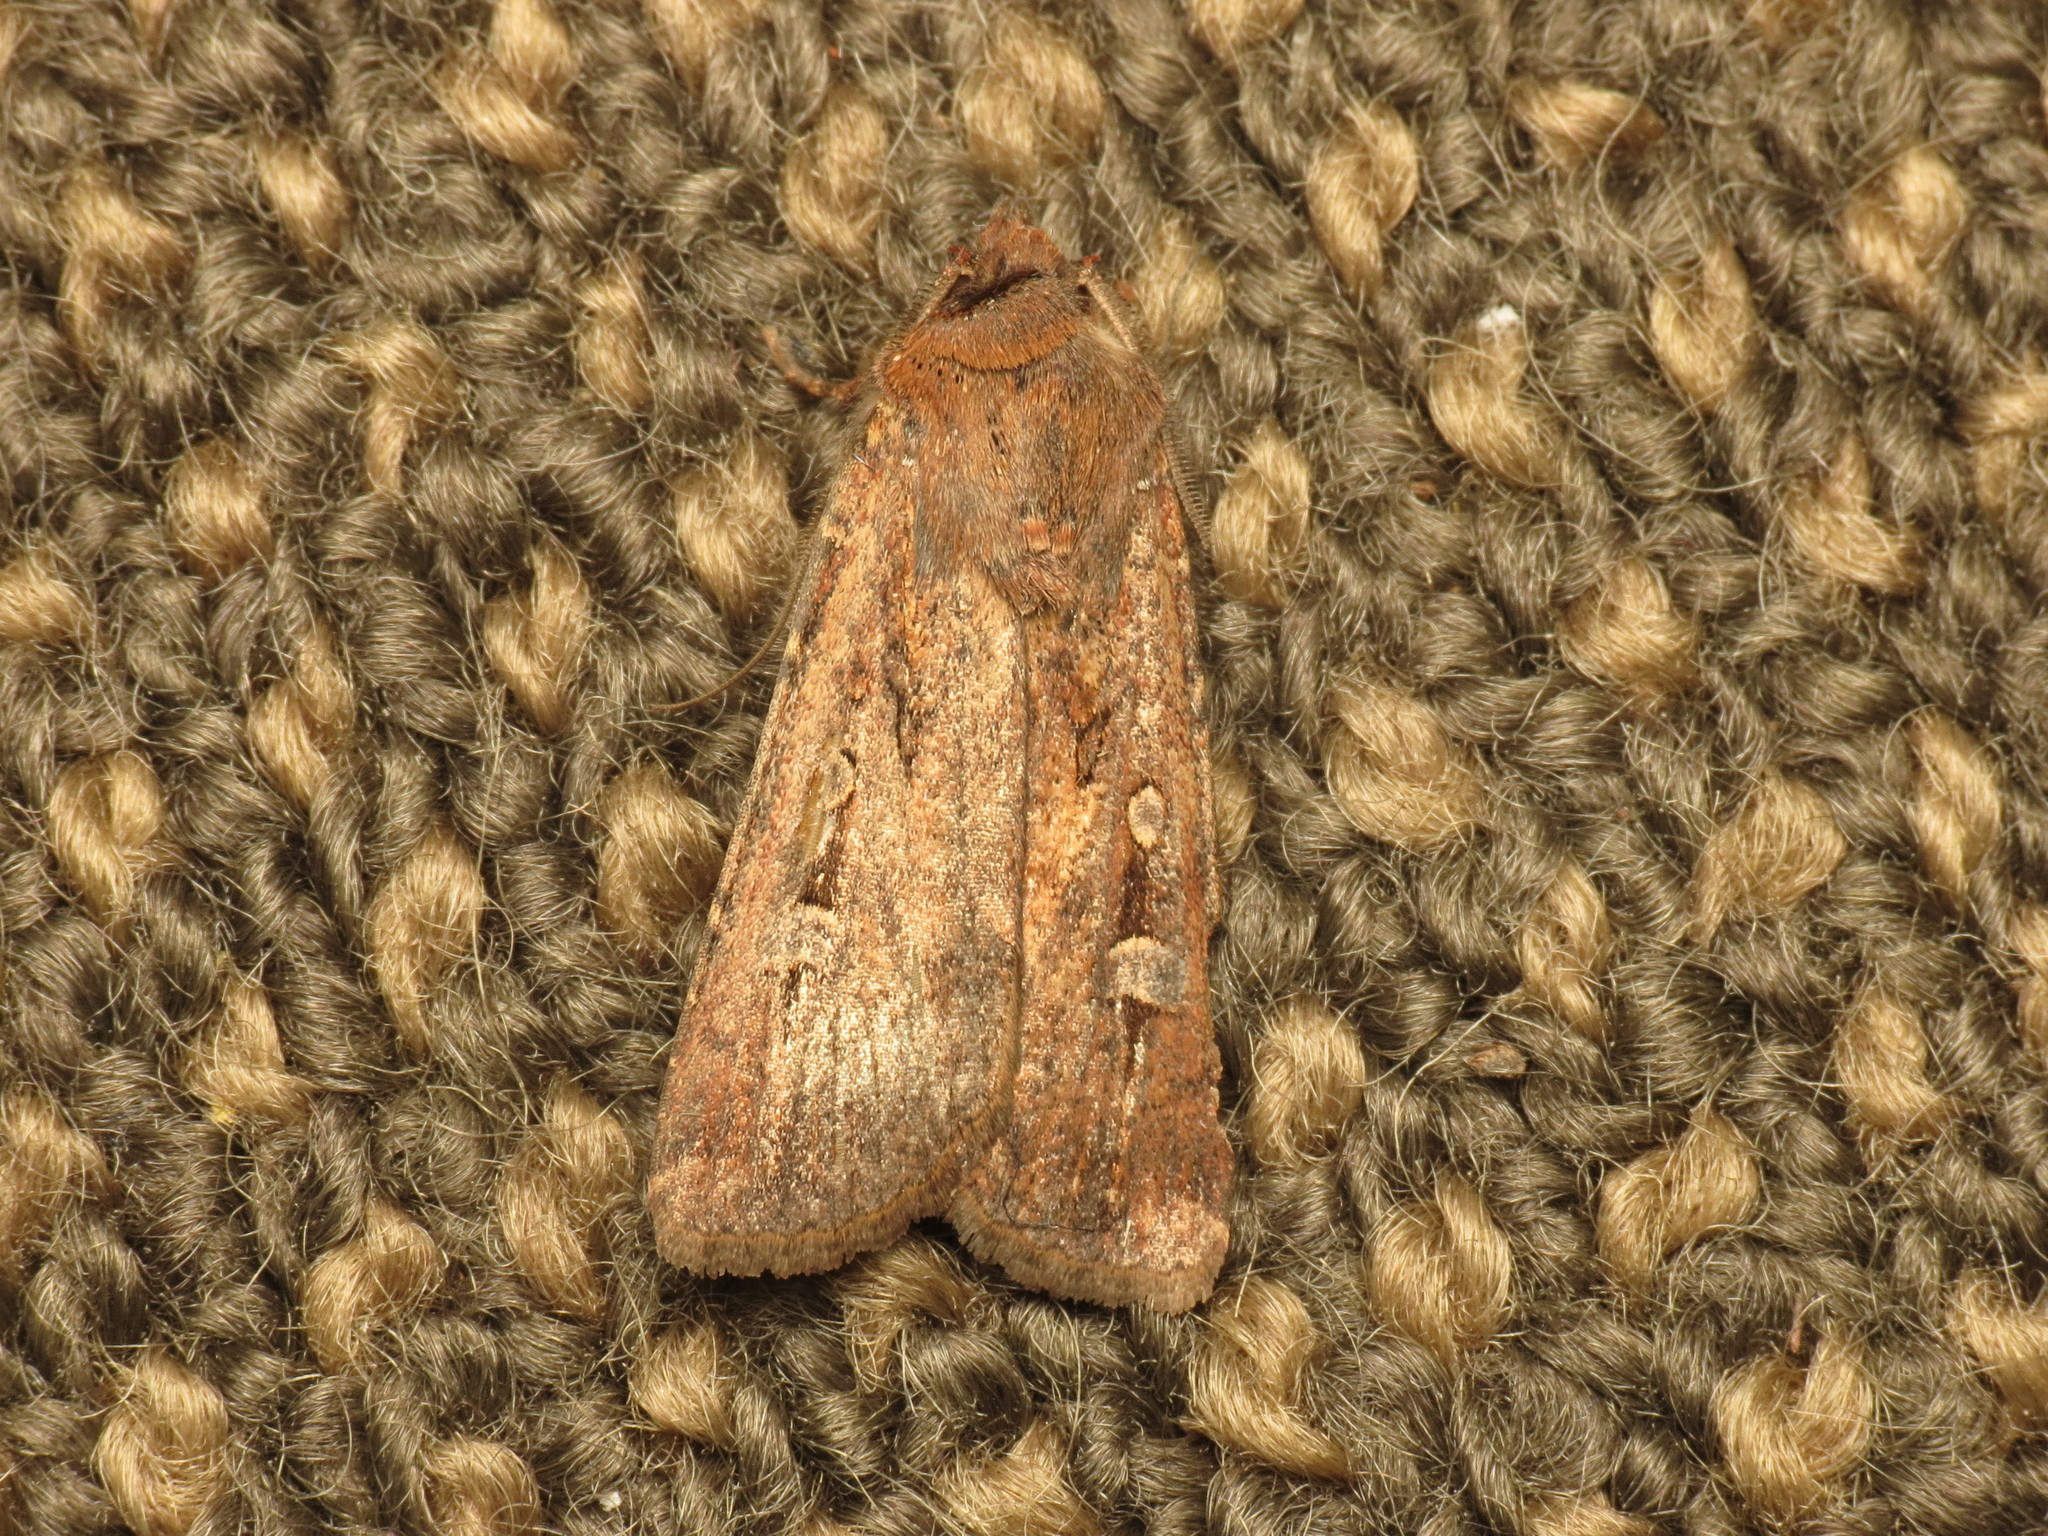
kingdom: Animalia
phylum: Arthropoda
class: Insecta
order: Lepidoptera
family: Noctuidae
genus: Agrotis
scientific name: Agrotis infusa
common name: Bogong moth
